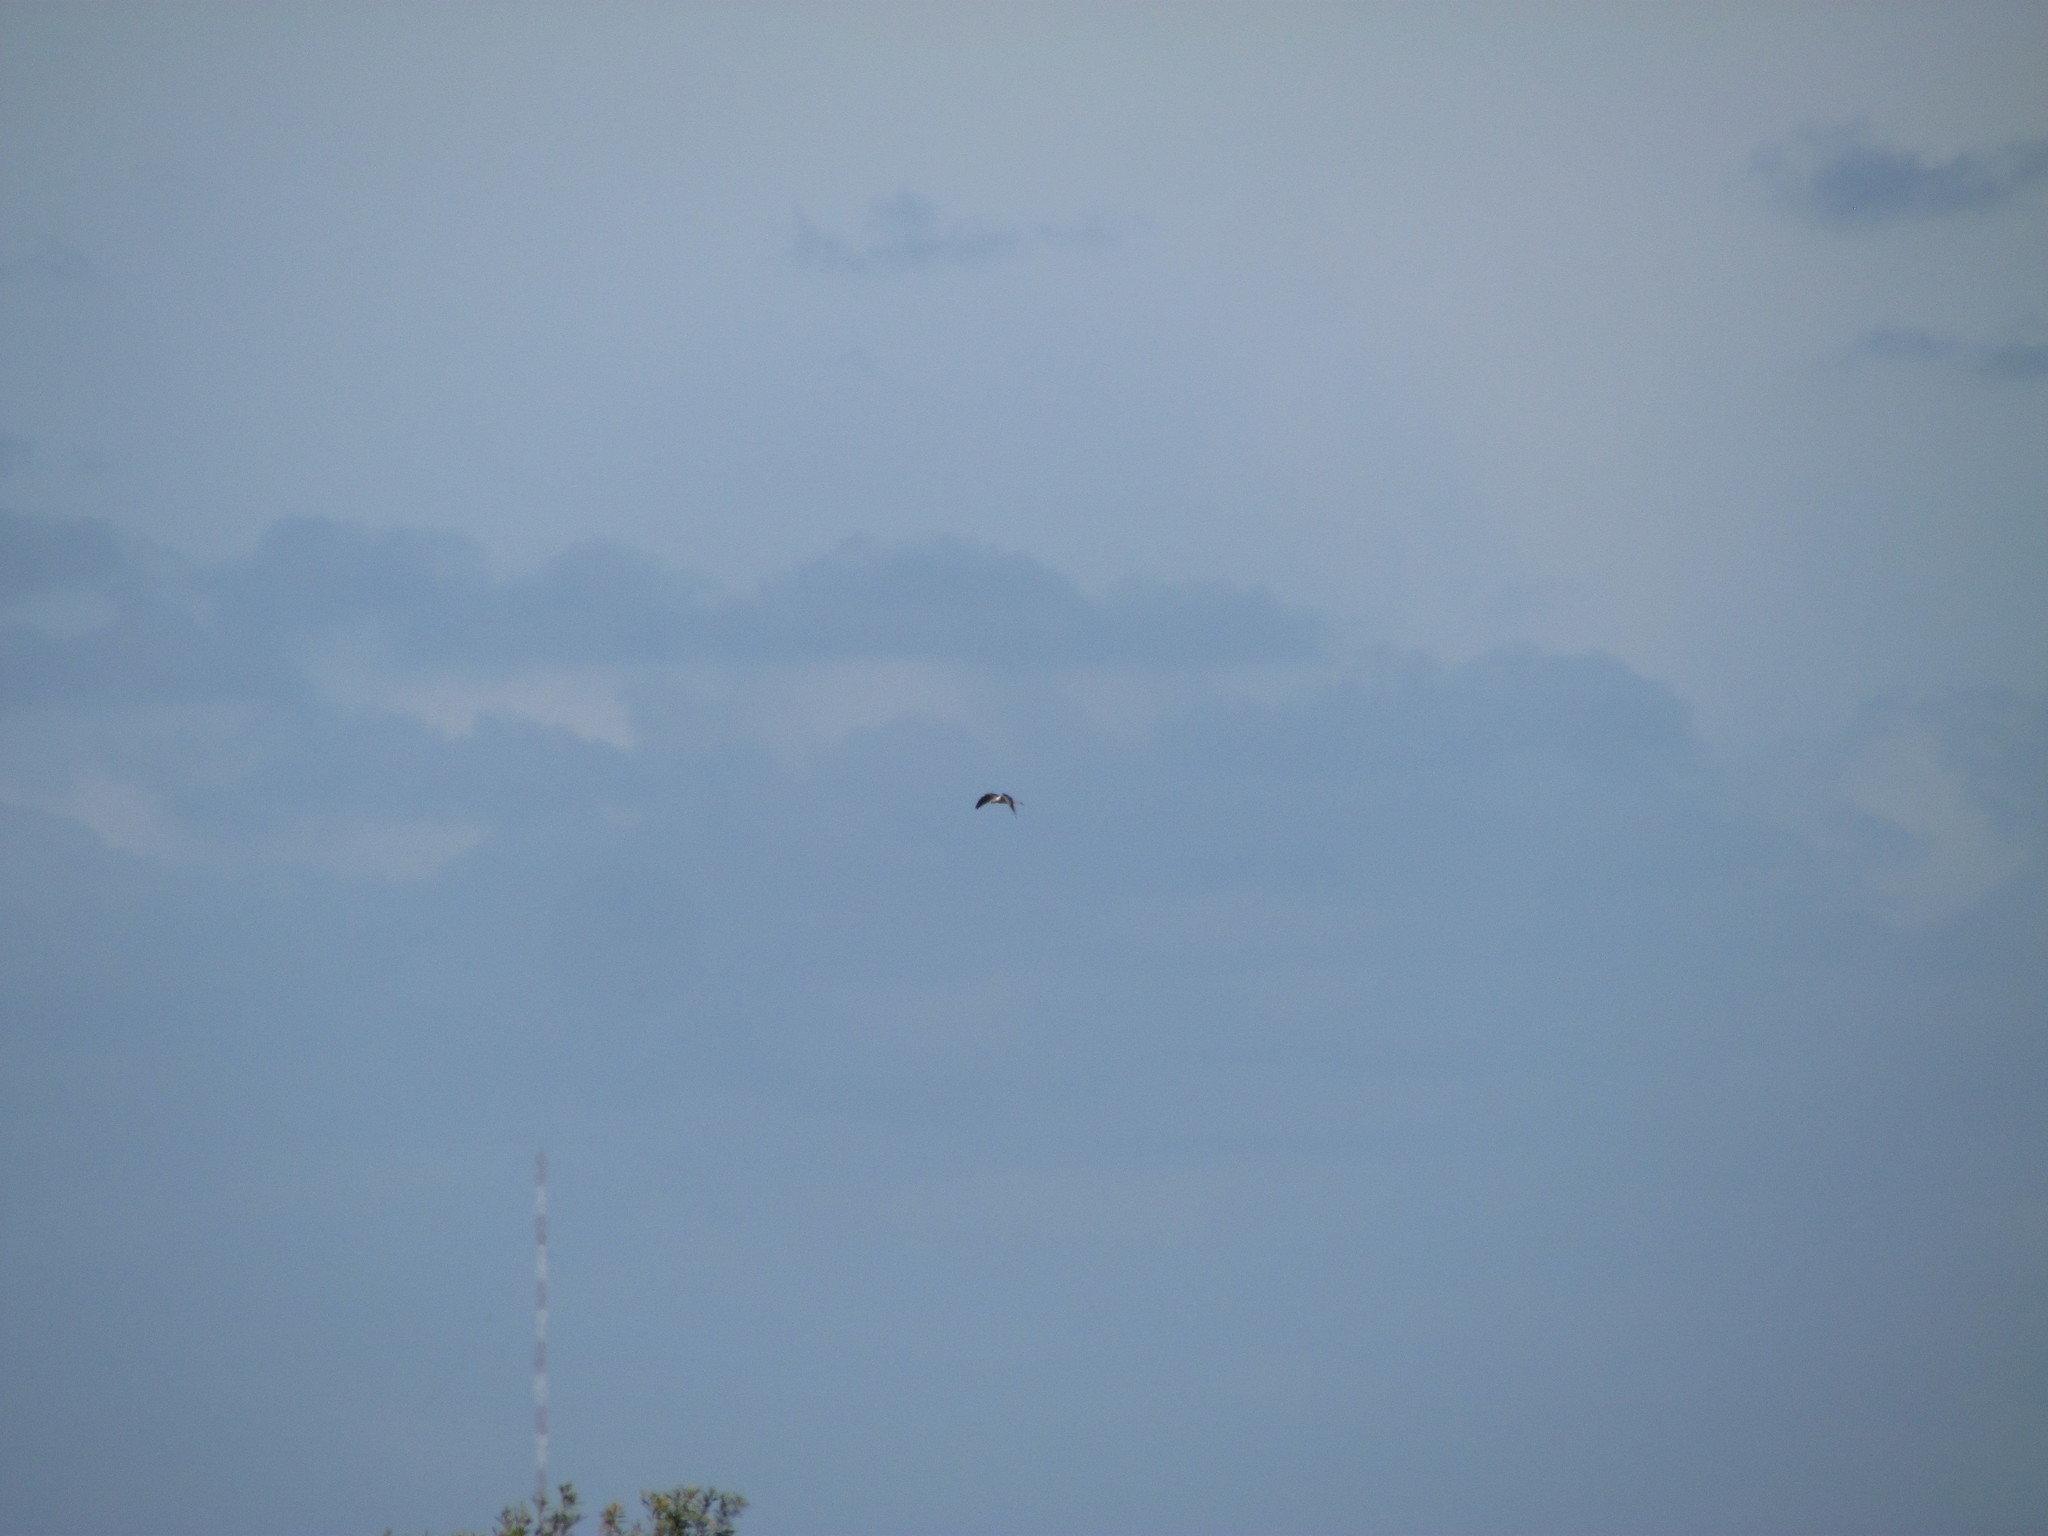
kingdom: Animalia
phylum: Chordata
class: Aves
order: Accipitriformes
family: Accipitridae
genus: Elanus
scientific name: Elanus leucurus
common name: White-tailed kite
